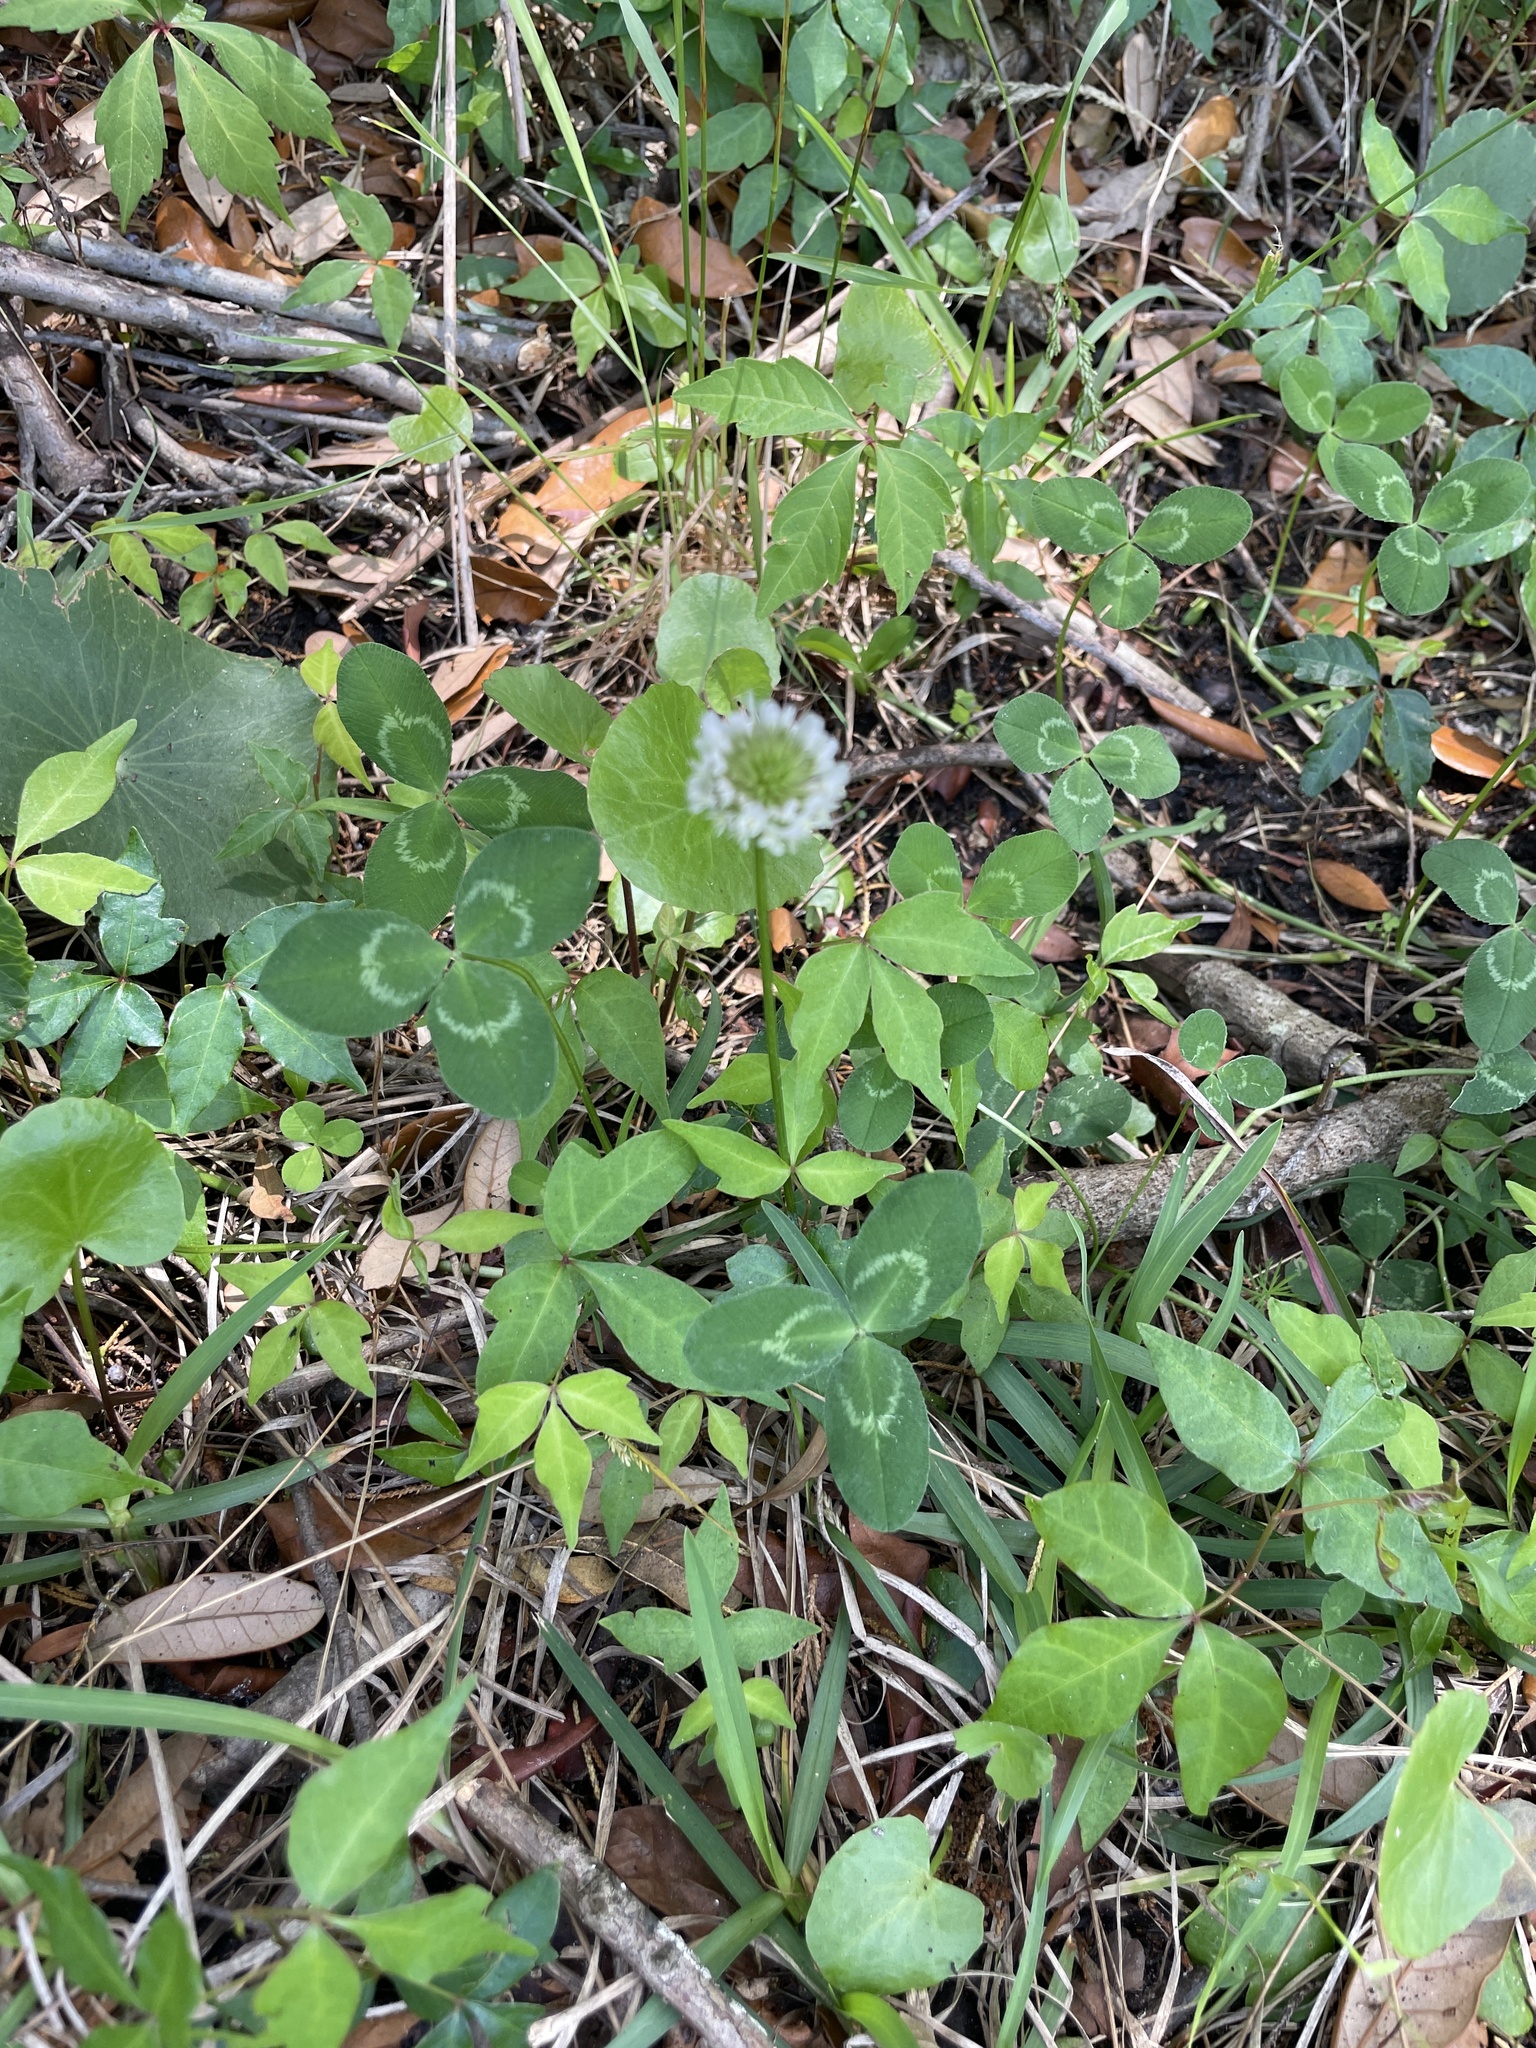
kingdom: Plantae
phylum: Tracheophyta
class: Magnoliopsida
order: Fabales
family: Fabaceae
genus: Trifolium
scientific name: Trifolium repens
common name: White clover
